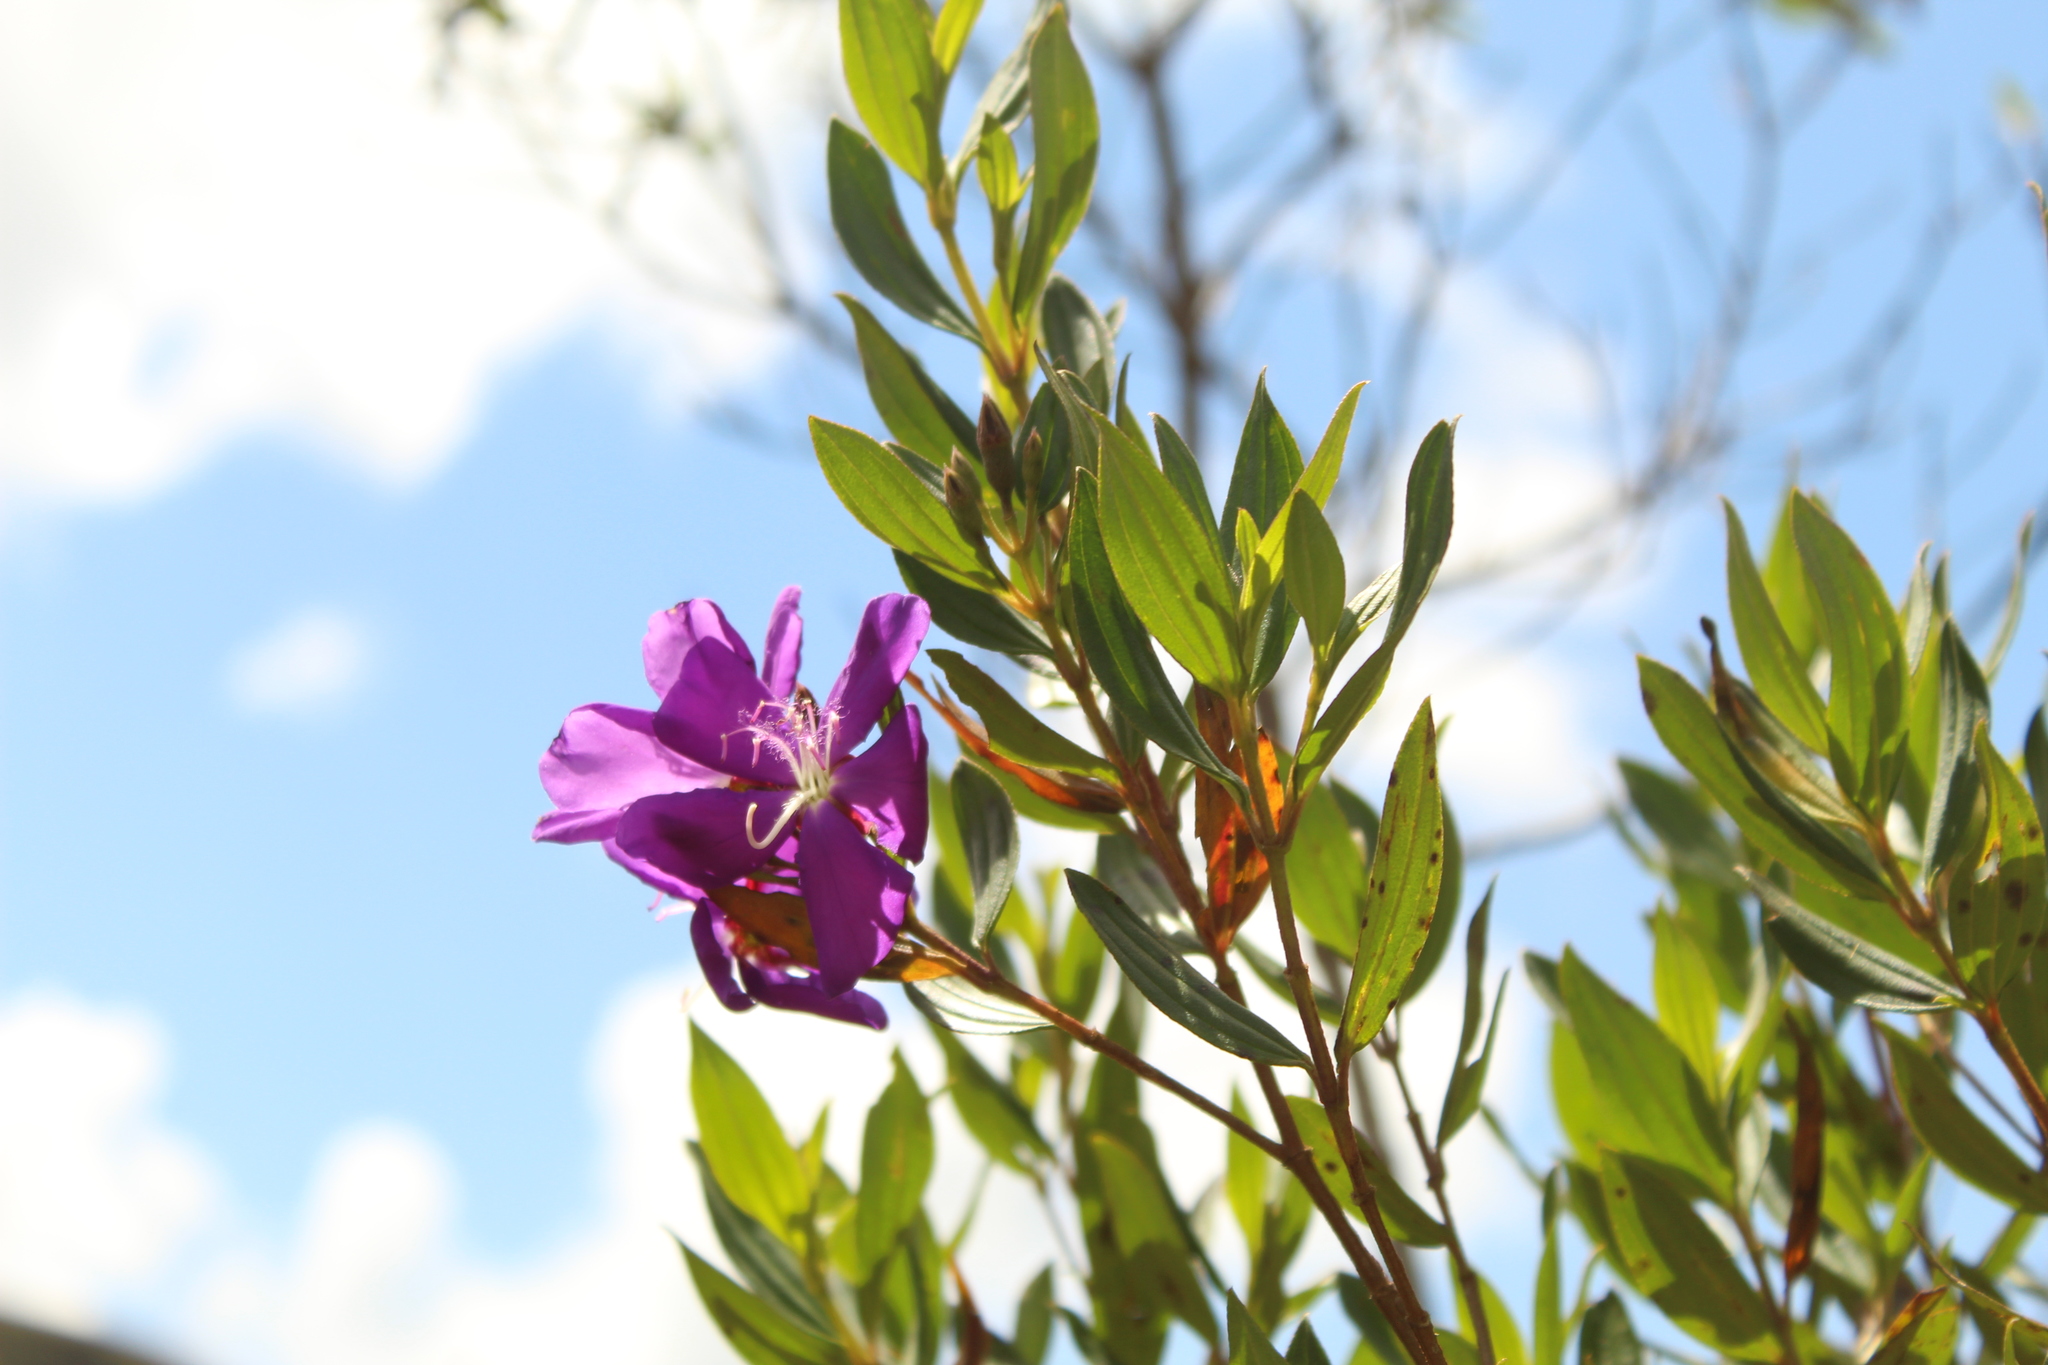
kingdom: Plantae
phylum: Tracheophyta
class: Magnoliopsida
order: Myrtales
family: Melastomataceae
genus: Pleroma
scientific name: Pleroma martiale
